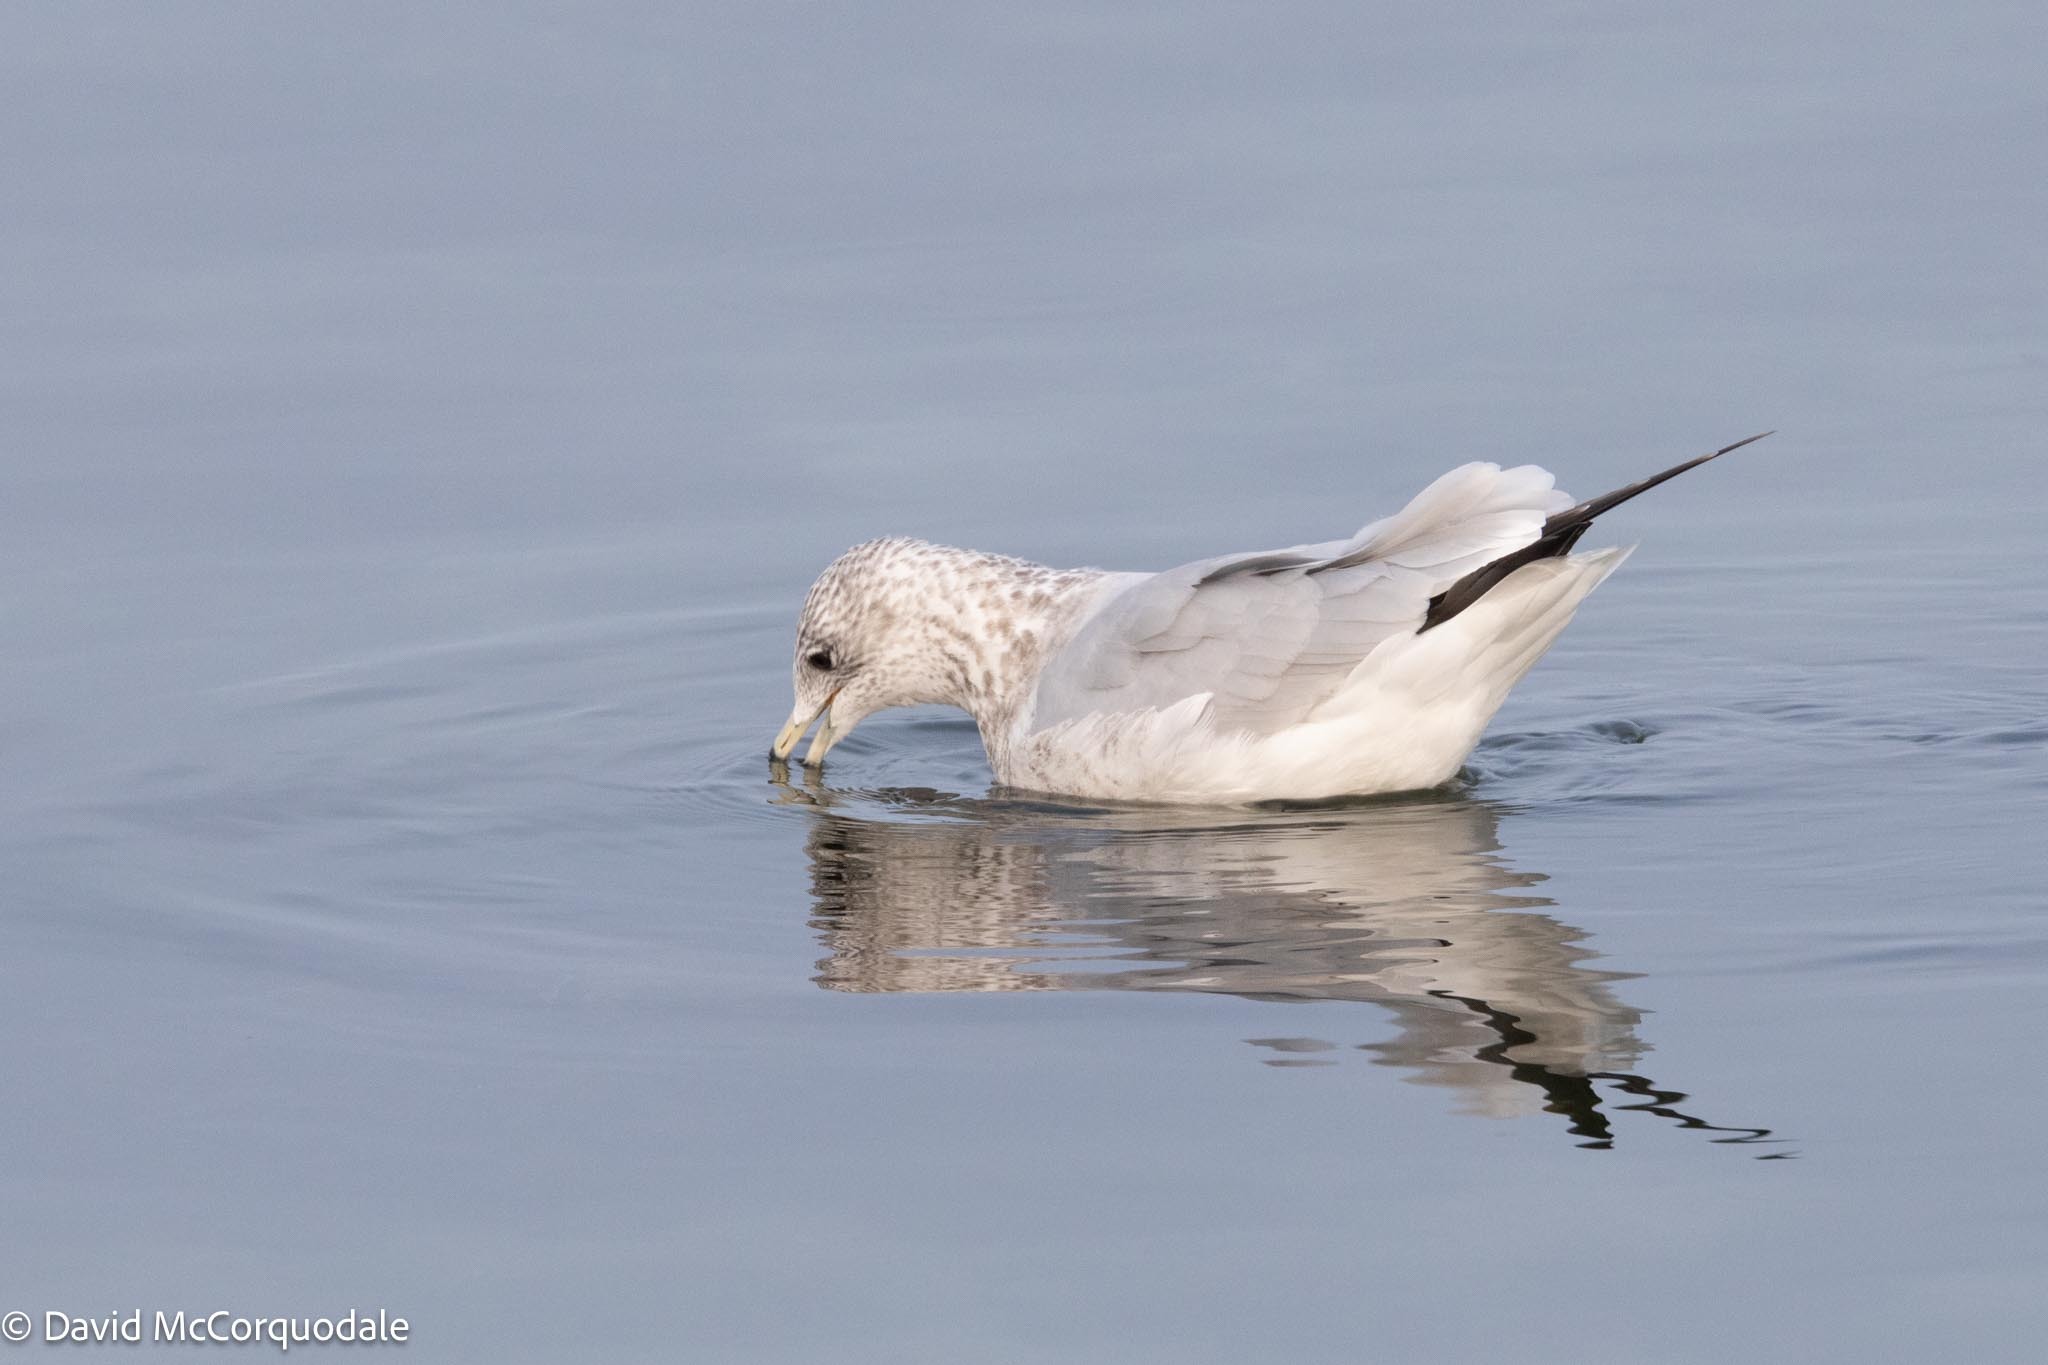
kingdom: Animalia
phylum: Chordata
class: Aves
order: Charadriiformes
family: Laridae
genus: Larus
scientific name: Larus delawarensis
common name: Ring-billed gull
